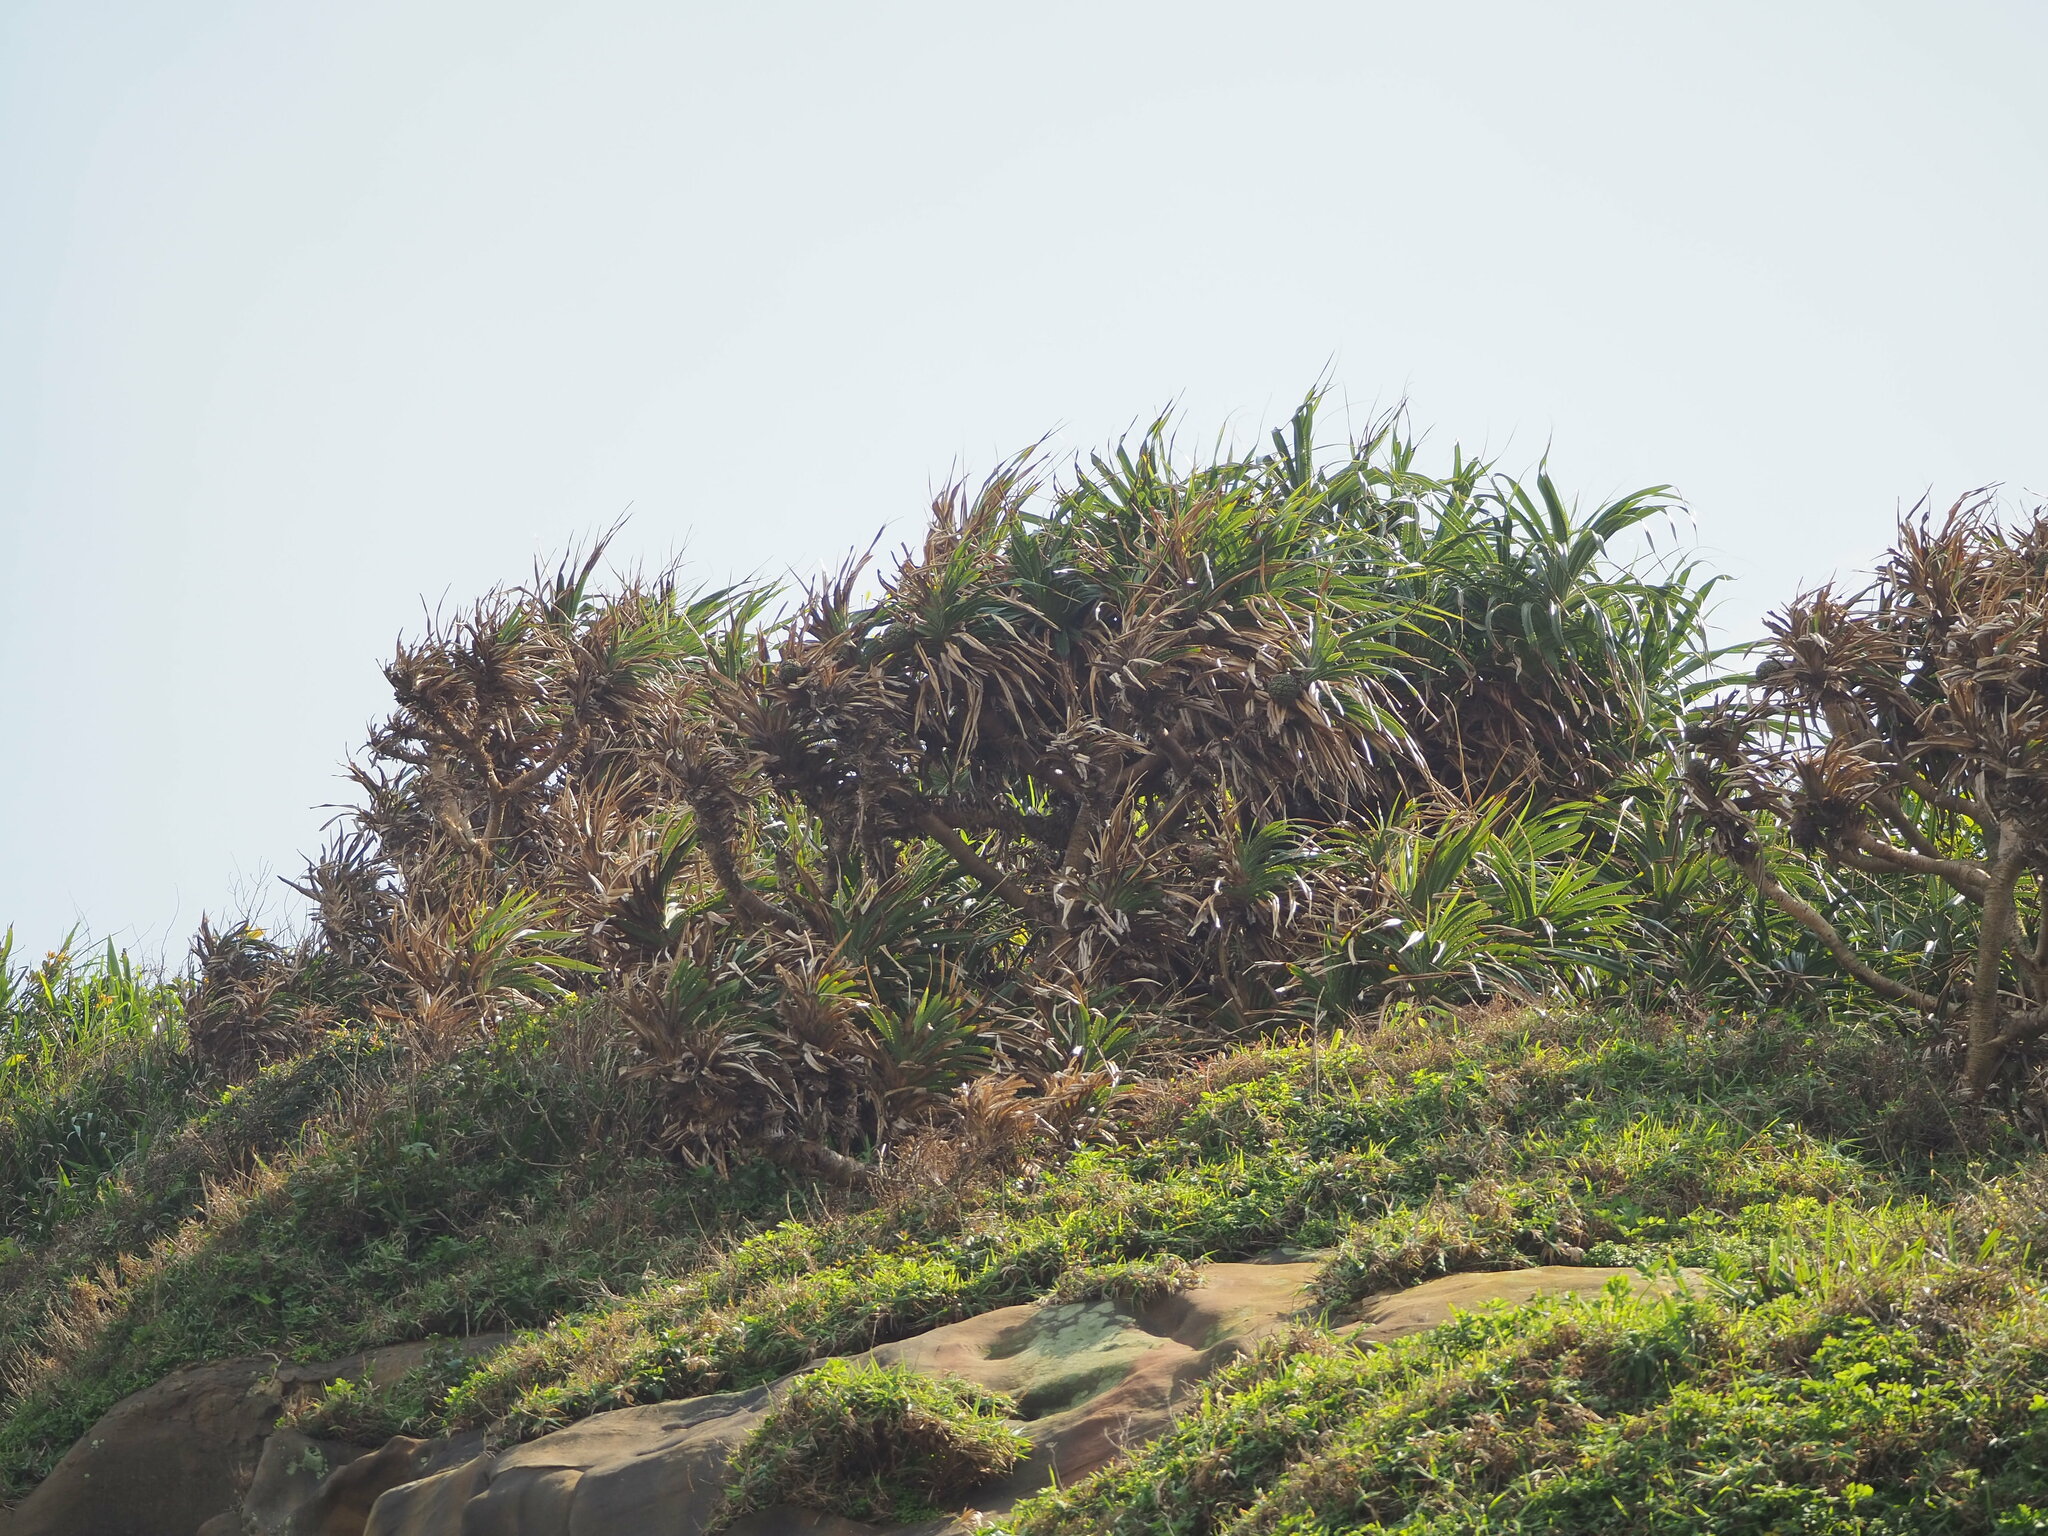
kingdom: Plantae
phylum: Tracheophyta
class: Liliopsida
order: Pandanales
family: Pandanaceae
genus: Pandanus
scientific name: Pandanus odorifer
